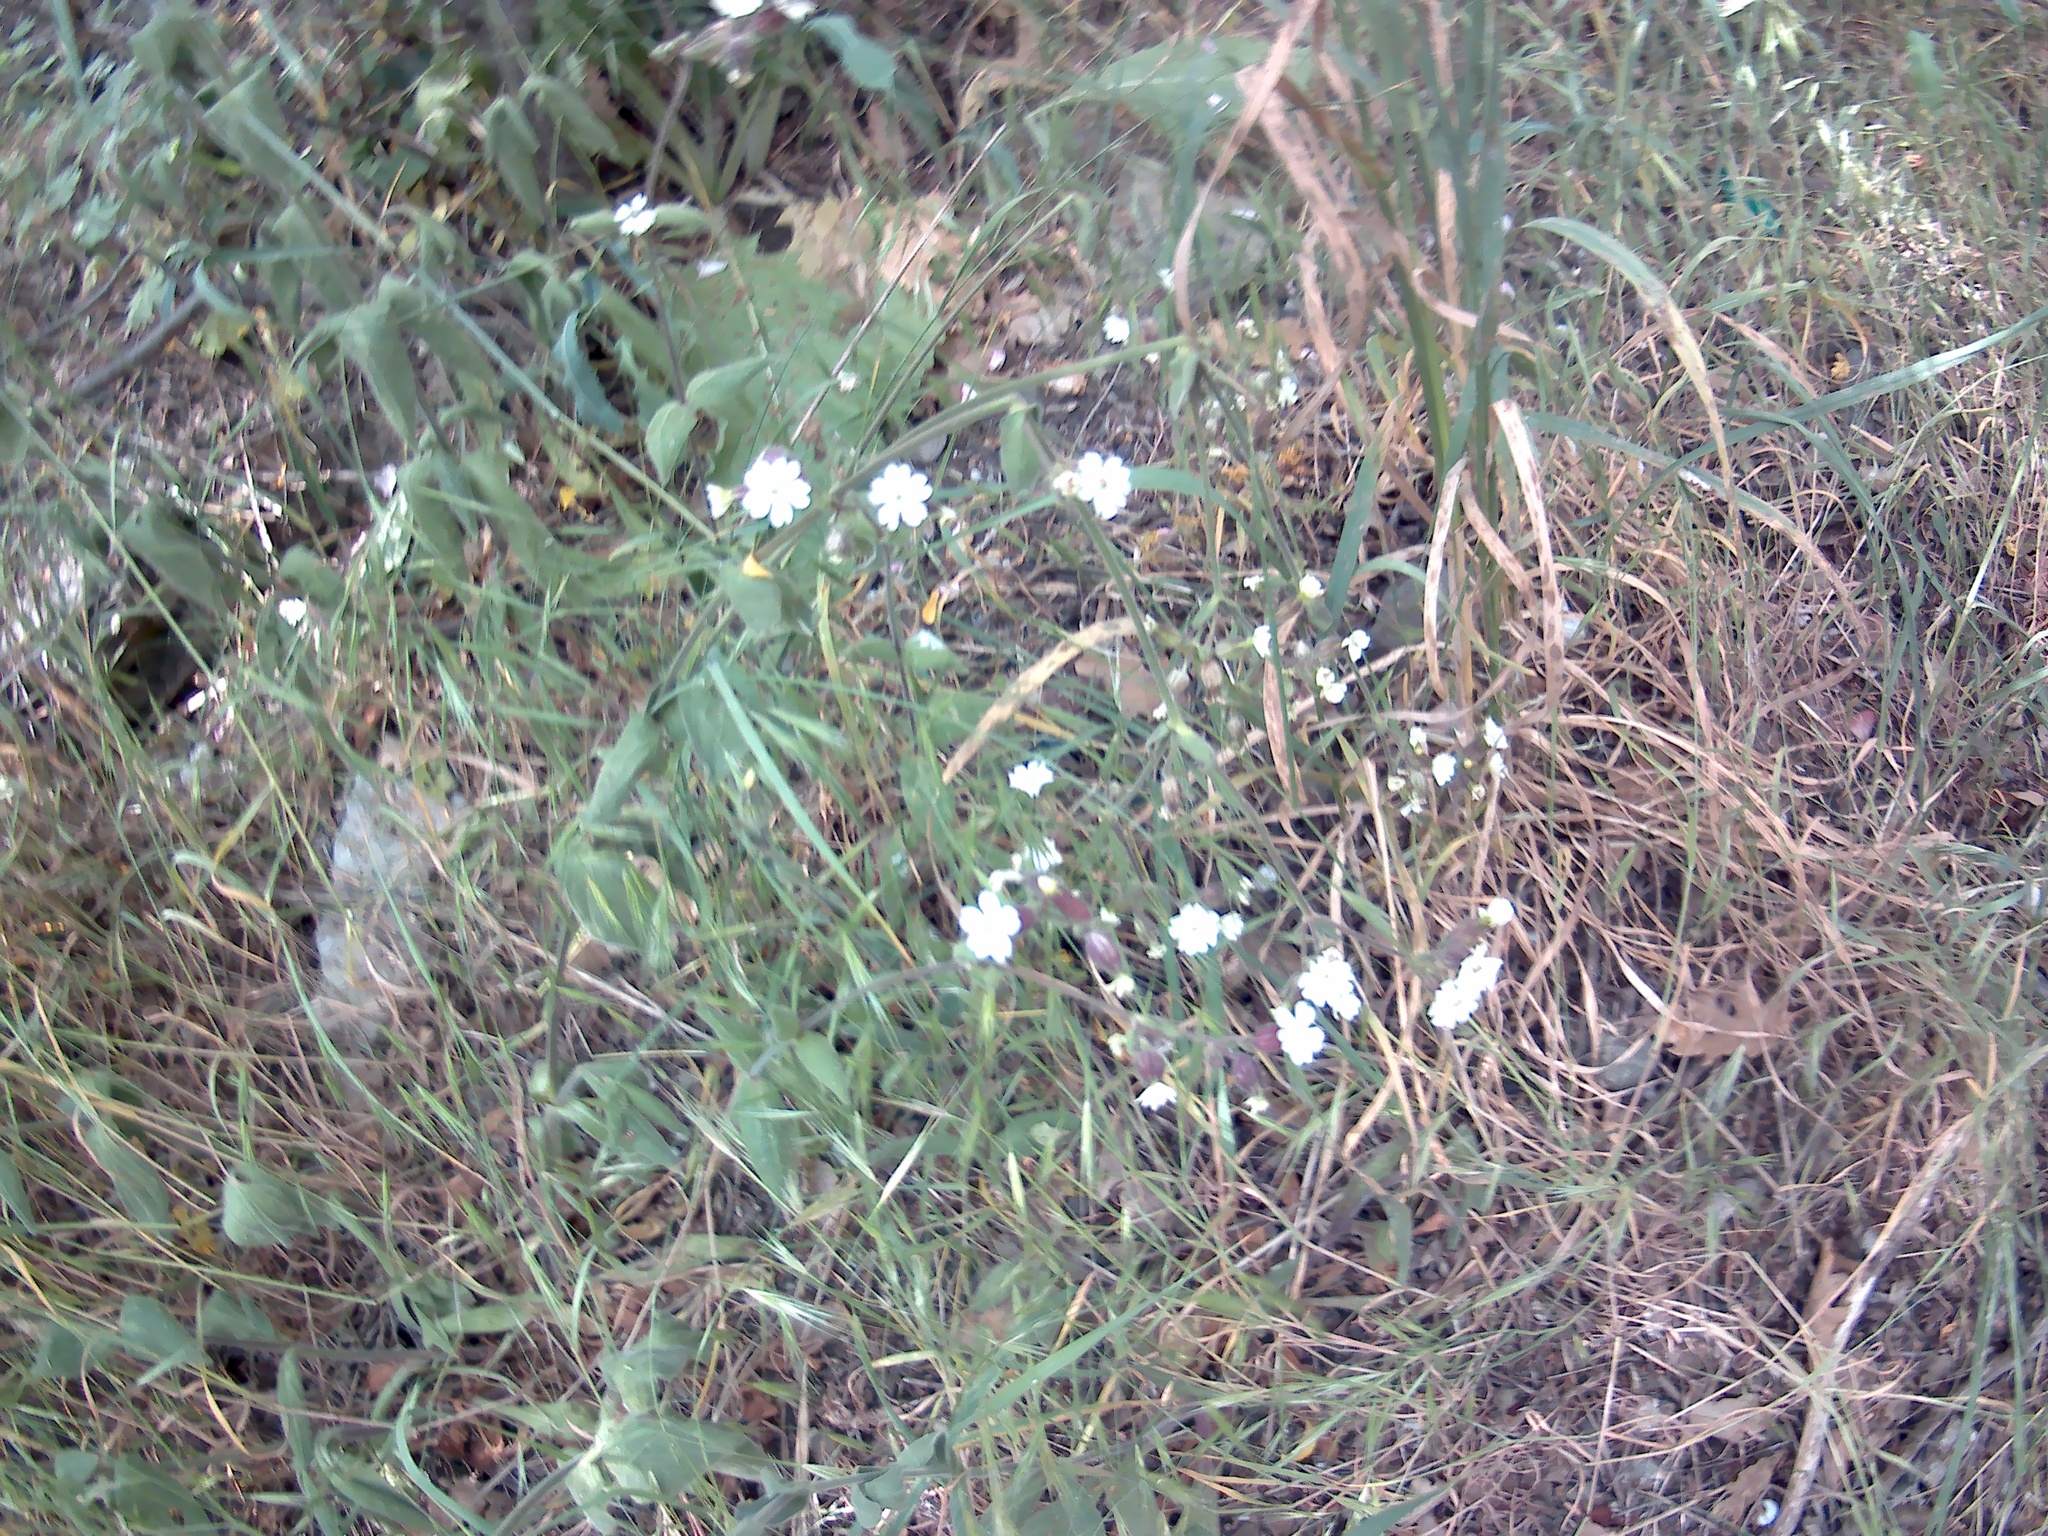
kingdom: Plantae
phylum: Tracheophyta
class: Magnoliopsida
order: Caryophyllales
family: Caryophyllaceae
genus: Silene
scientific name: Silene latifolia
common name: White campion
